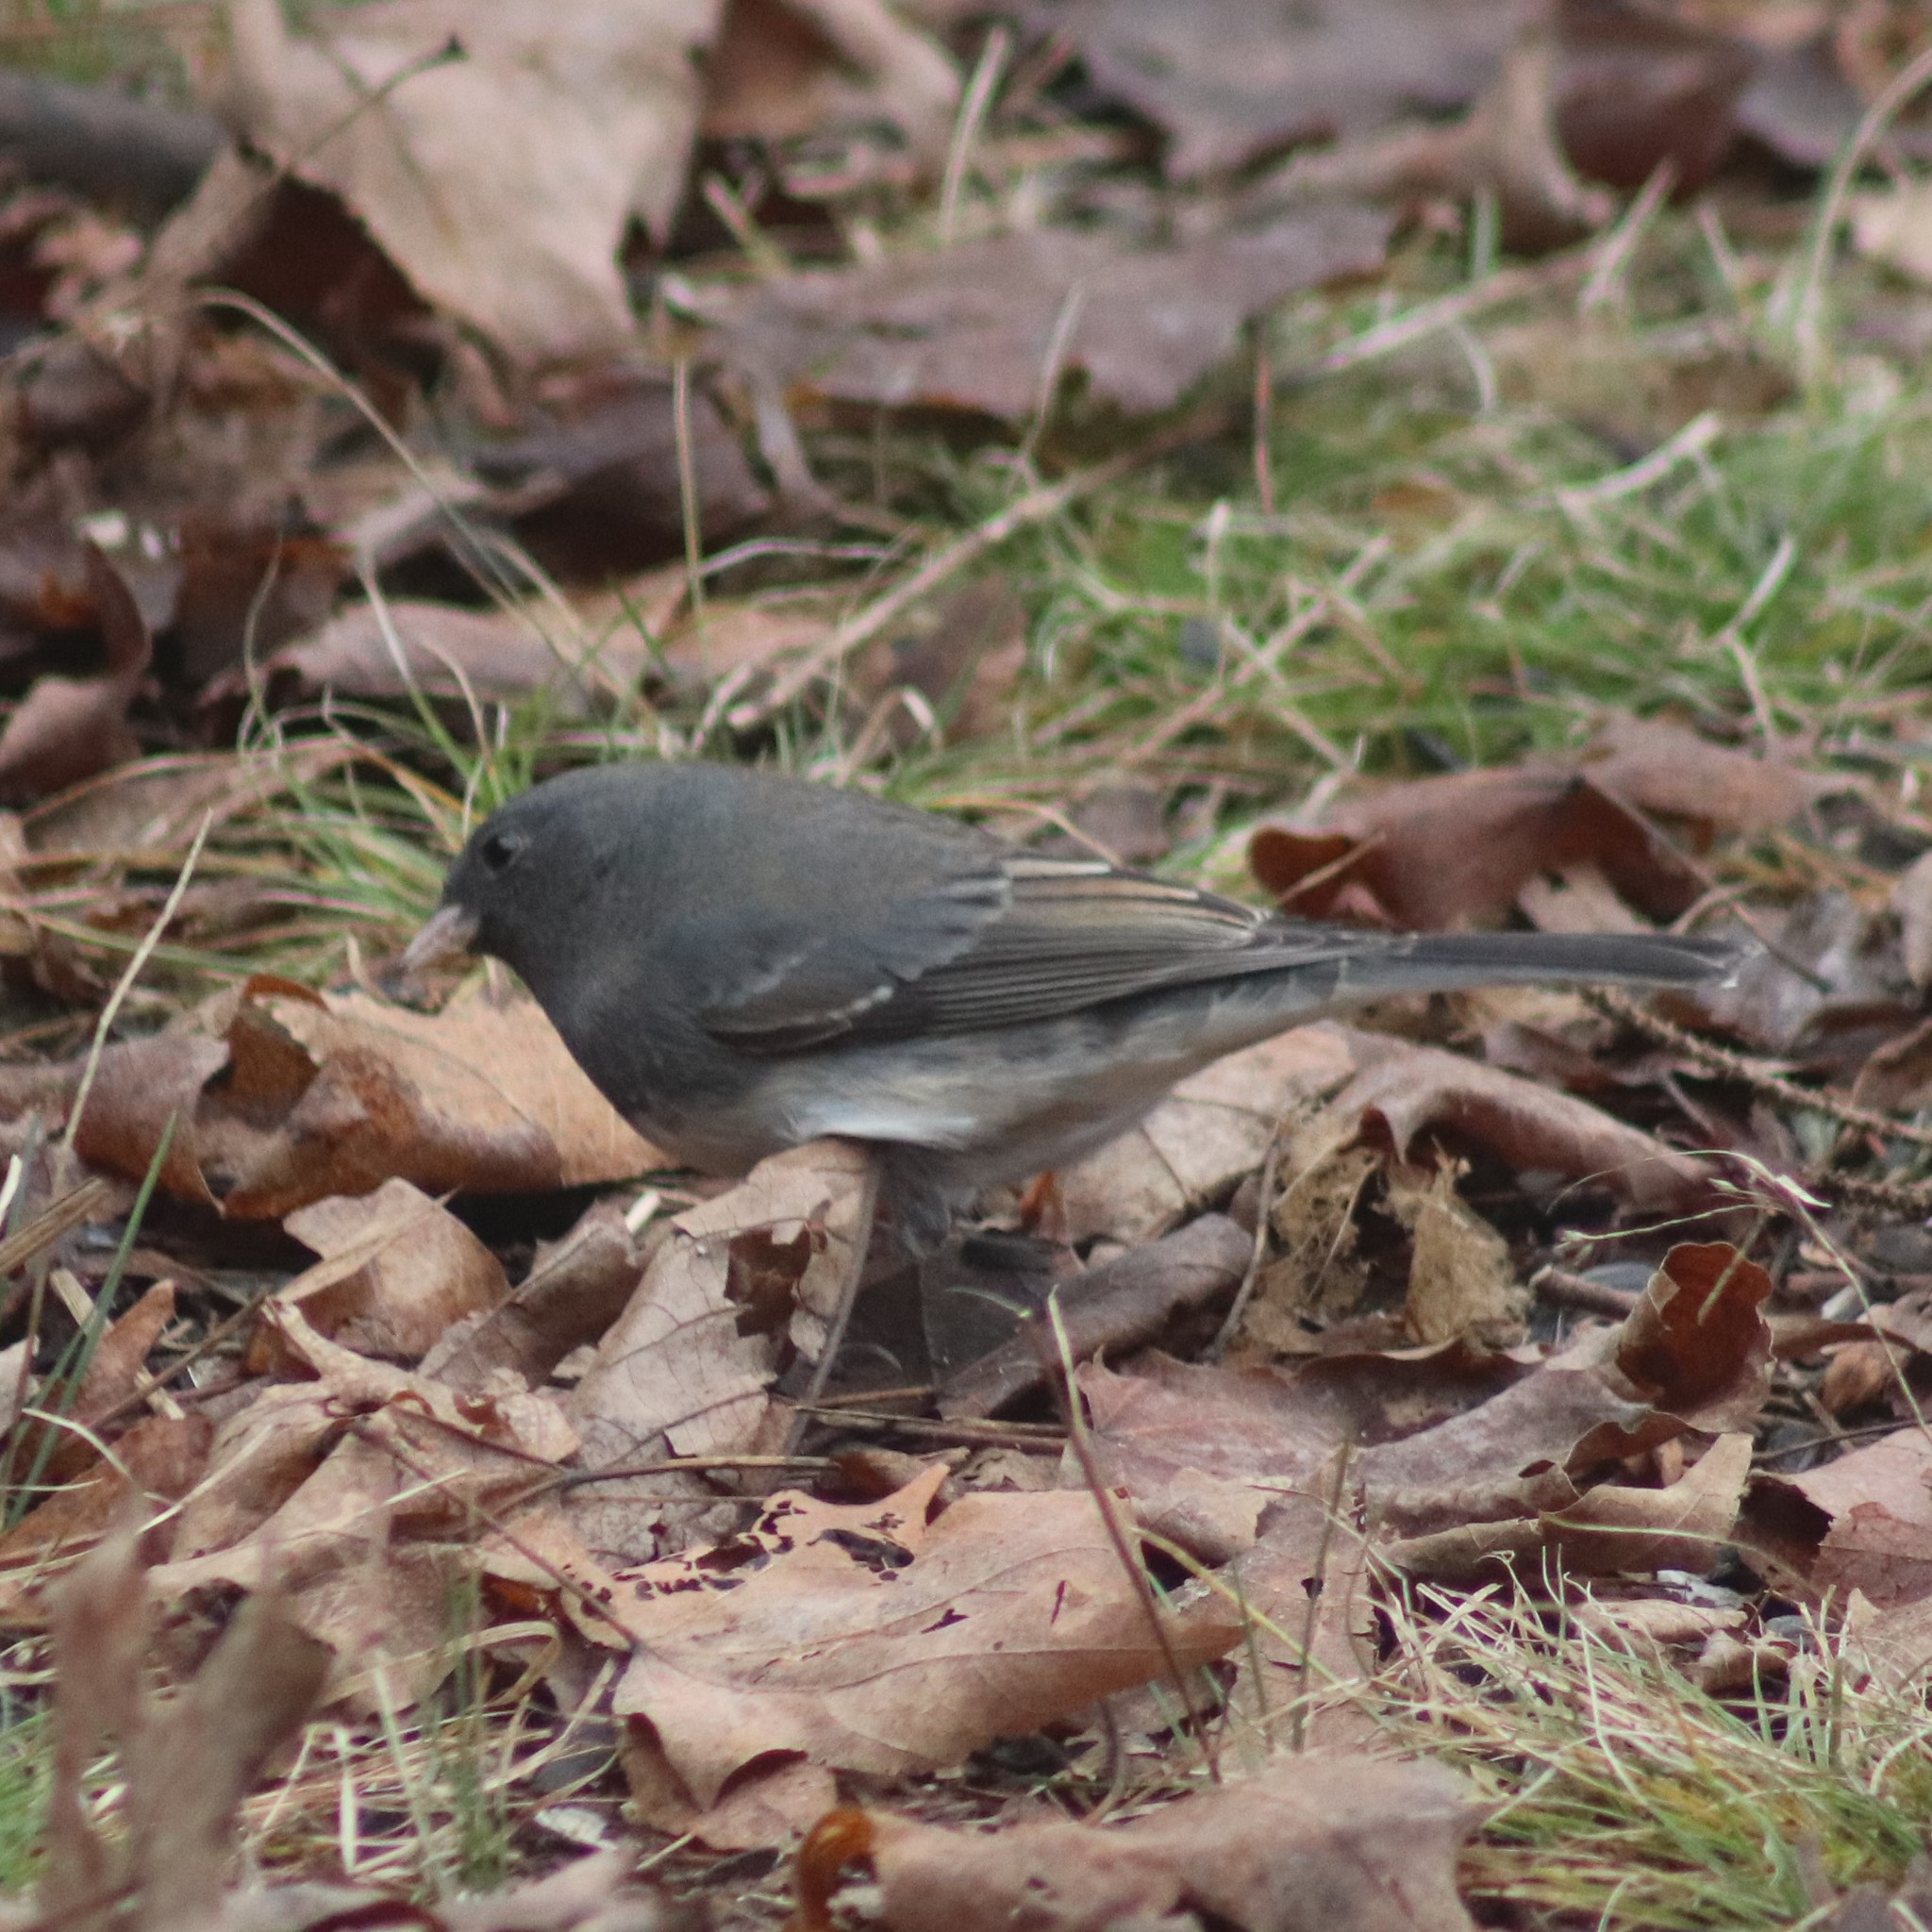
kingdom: Animalia
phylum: Chordata
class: Aves
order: Passeriformes
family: Passerellidae
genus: Junco
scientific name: Junco hyemalis
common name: Dark-eyed junco
